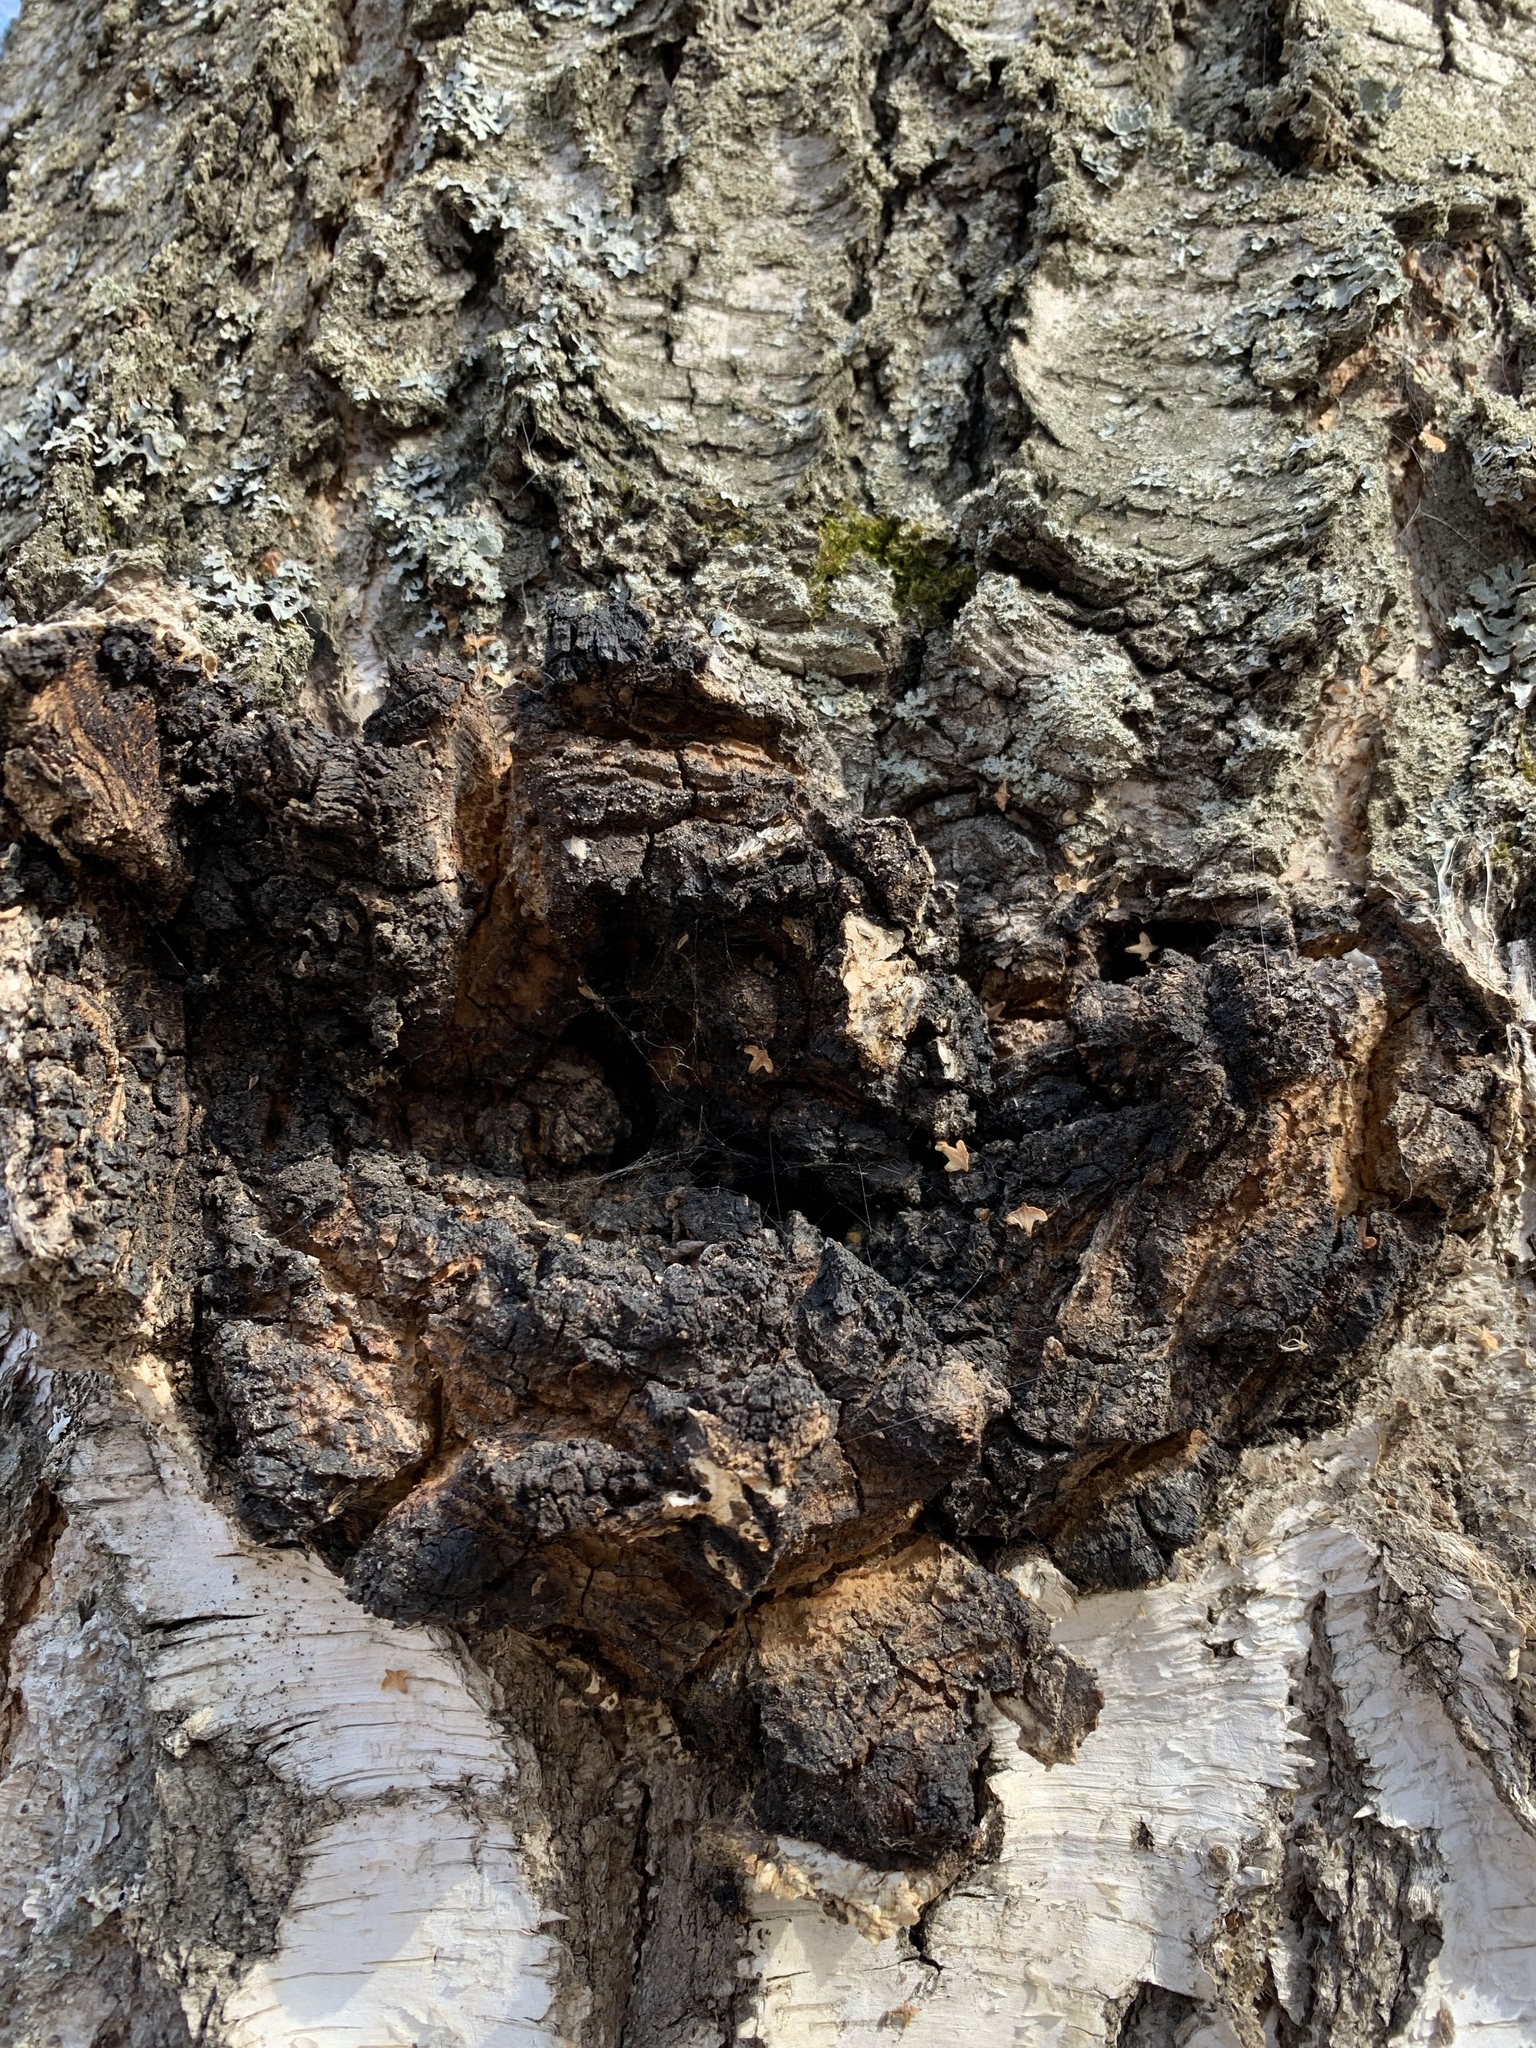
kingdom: Fungi
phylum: Basidiomycota
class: Agaricomycetes
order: Hymenochaetales
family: Hymenochaetaceae
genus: Inonotus
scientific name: Inonotus obliquus
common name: Chaga
